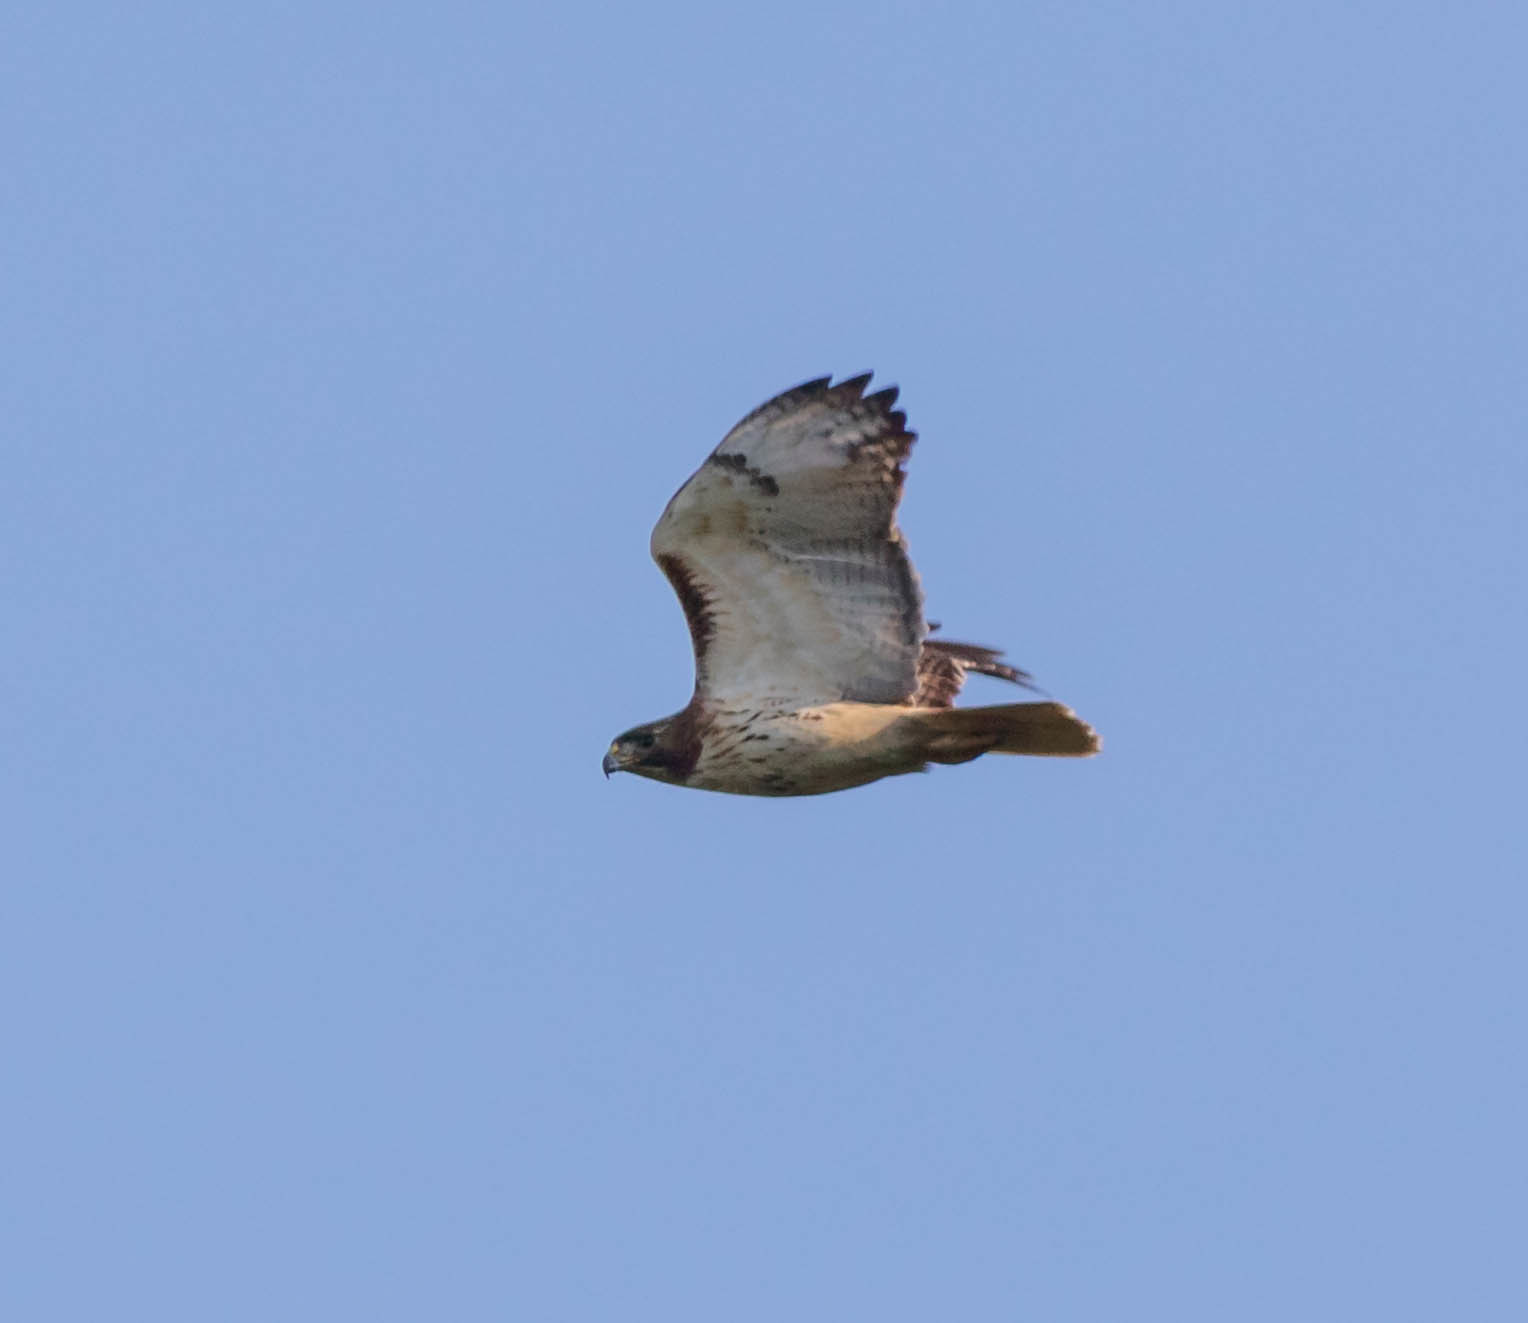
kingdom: Animalia
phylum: Chordata
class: Aves
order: Accipitriformes
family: Accipitridae
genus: Buteo
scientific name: Buteo jamaicensis
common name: Red-tailed hawk
